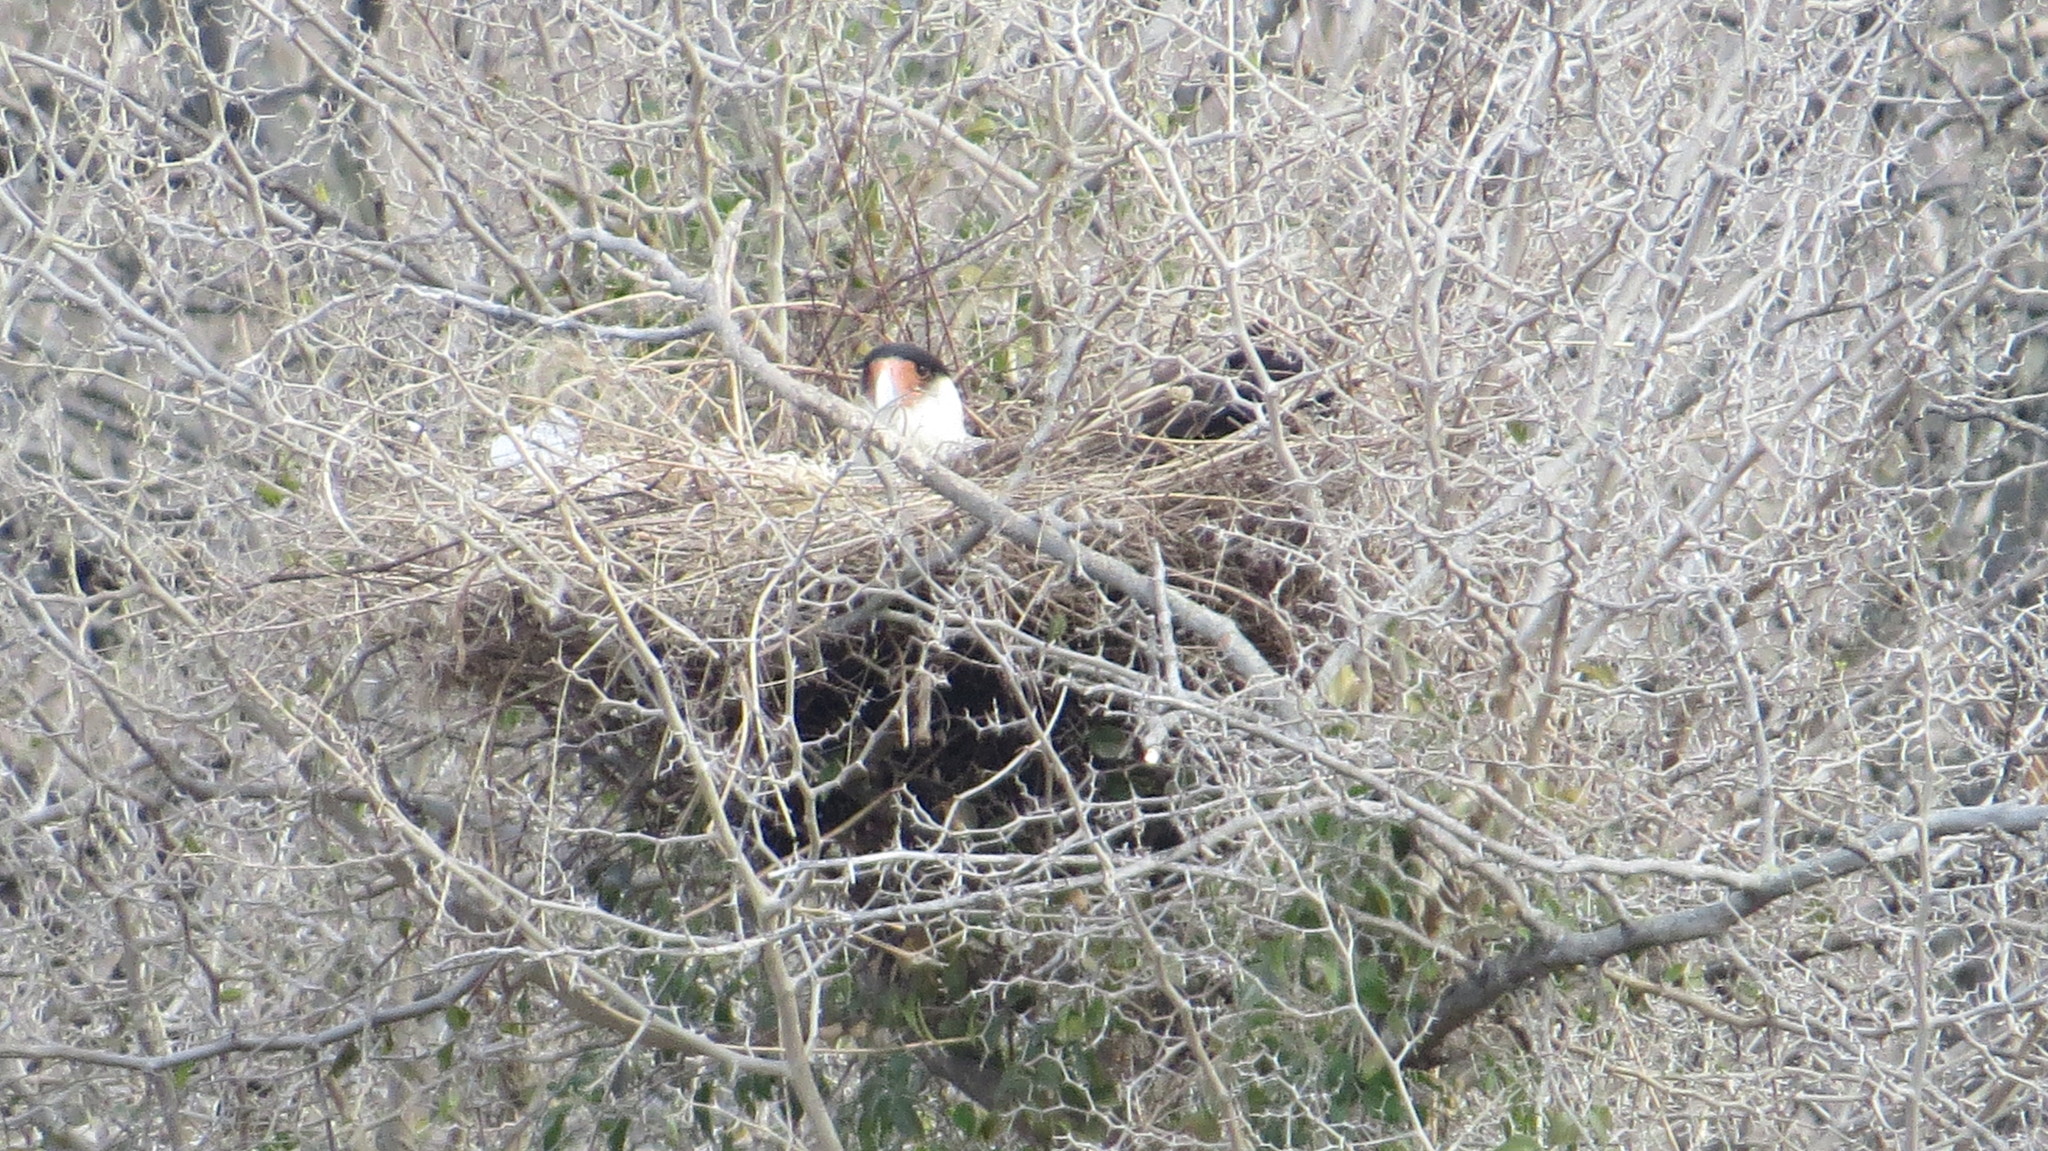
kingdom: Animalia
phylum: Chordata
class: Aves
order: Falconiformes
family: Falconidae
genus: Caracara
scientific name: Caracara plancus
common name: Southern caracara
